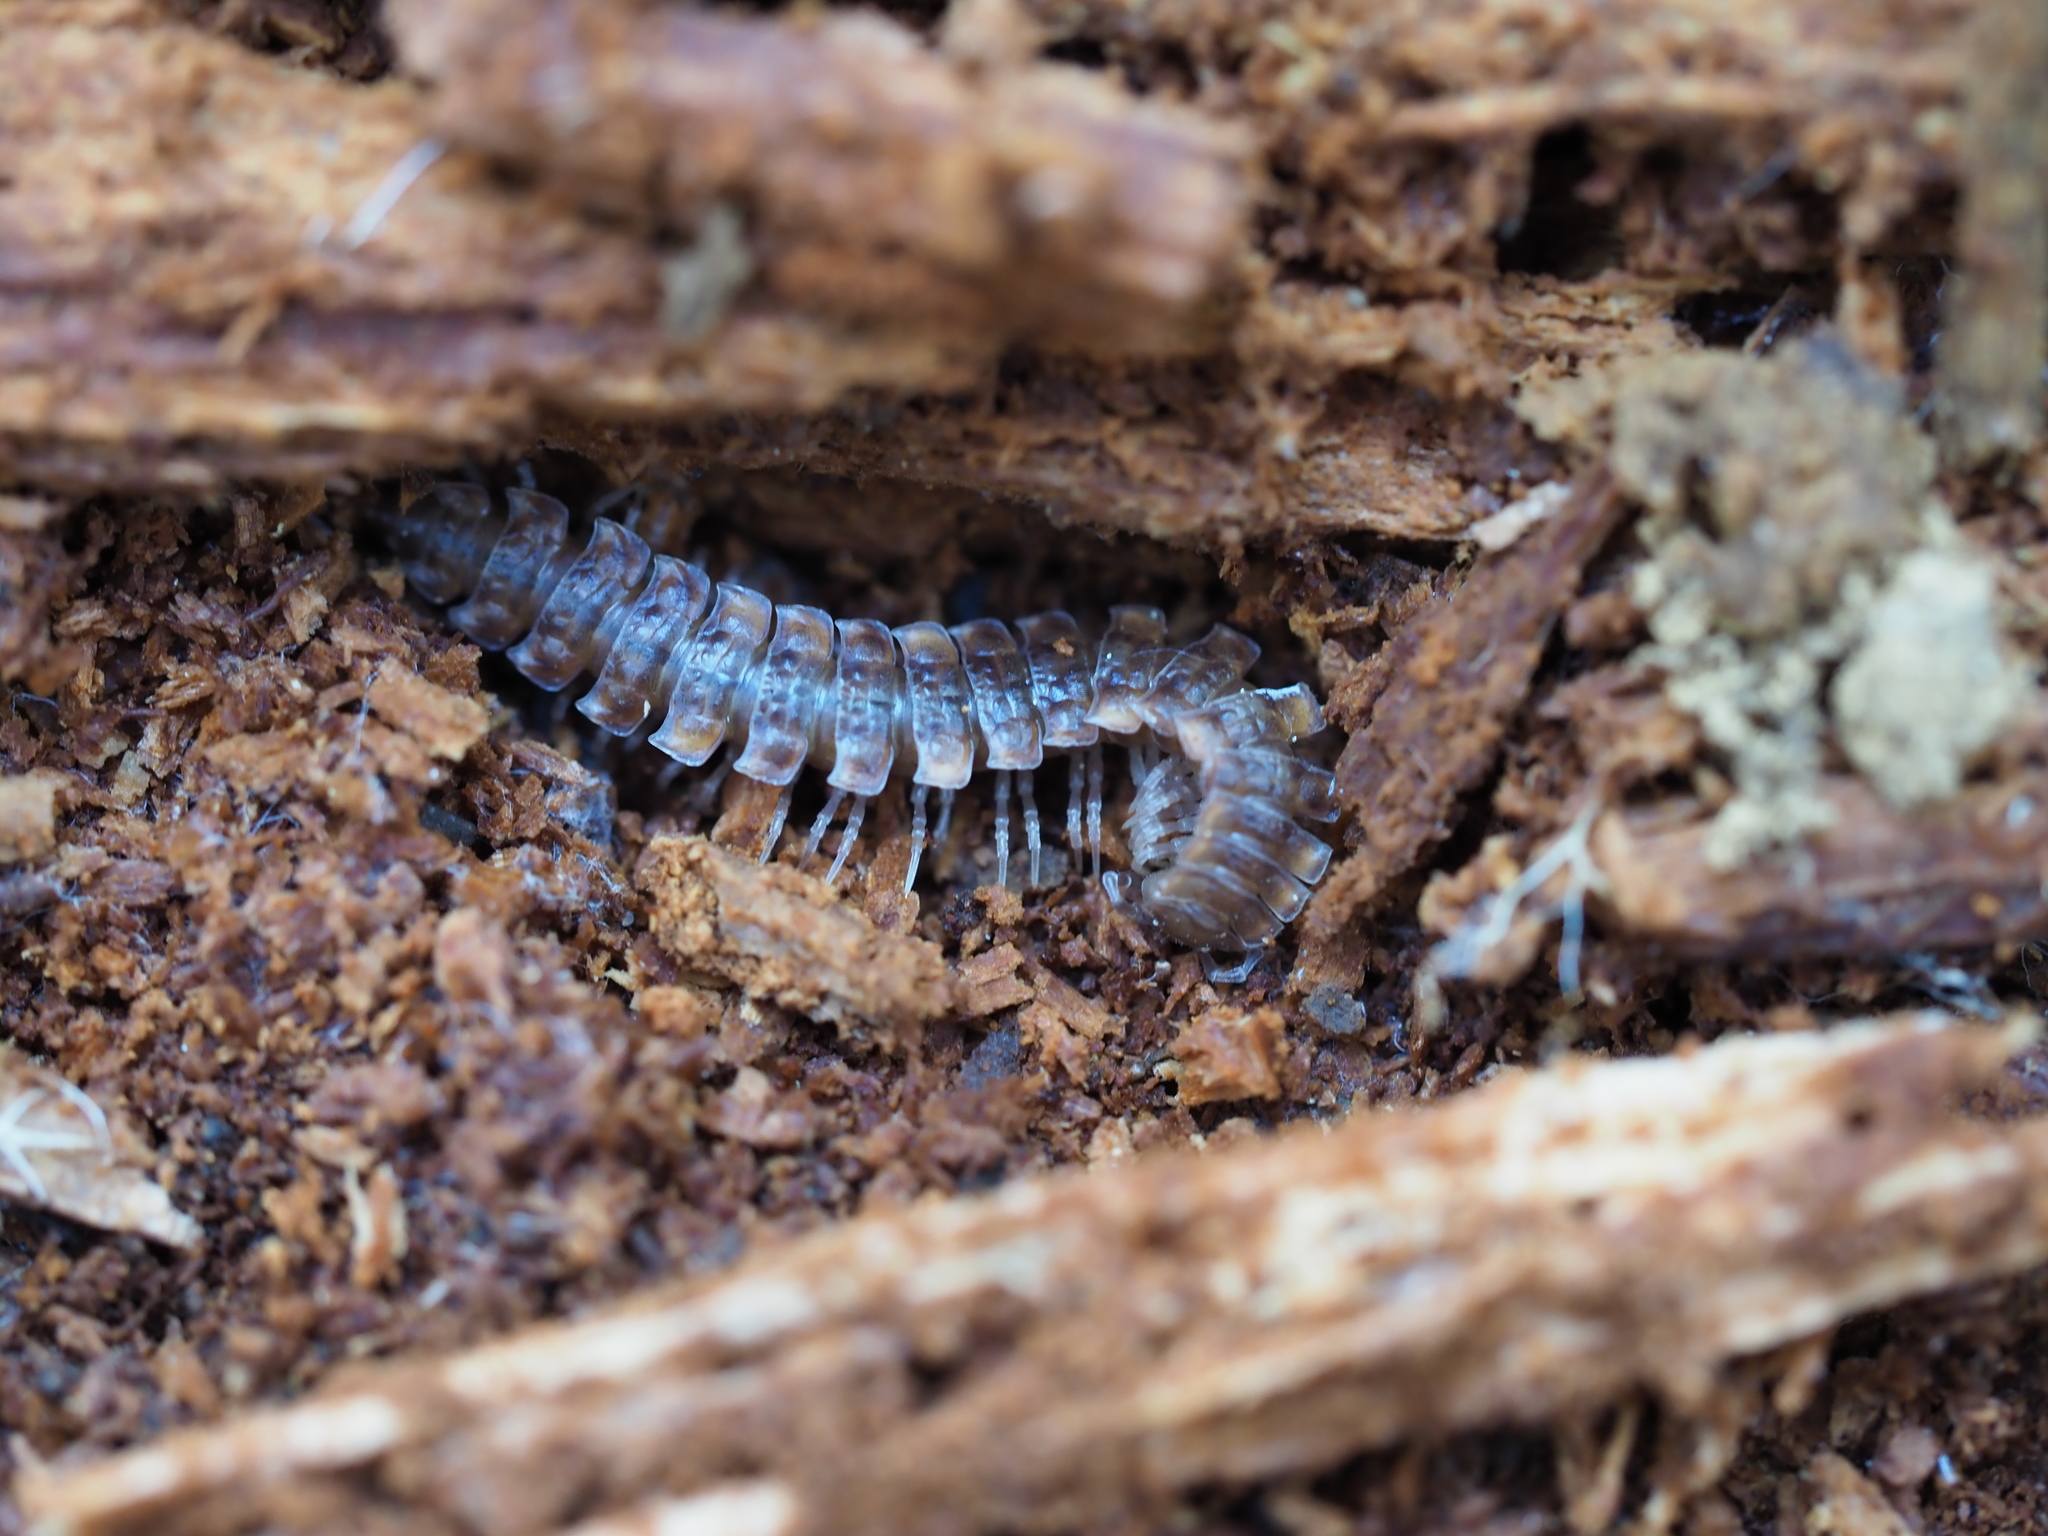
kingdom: Animalia
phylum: Arthropoda
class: Diplopoda
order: Polydesmida
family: Polydesmidae
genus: Polydesmus
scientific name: Polydesmus complanatus
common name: Flat-backed millipede
